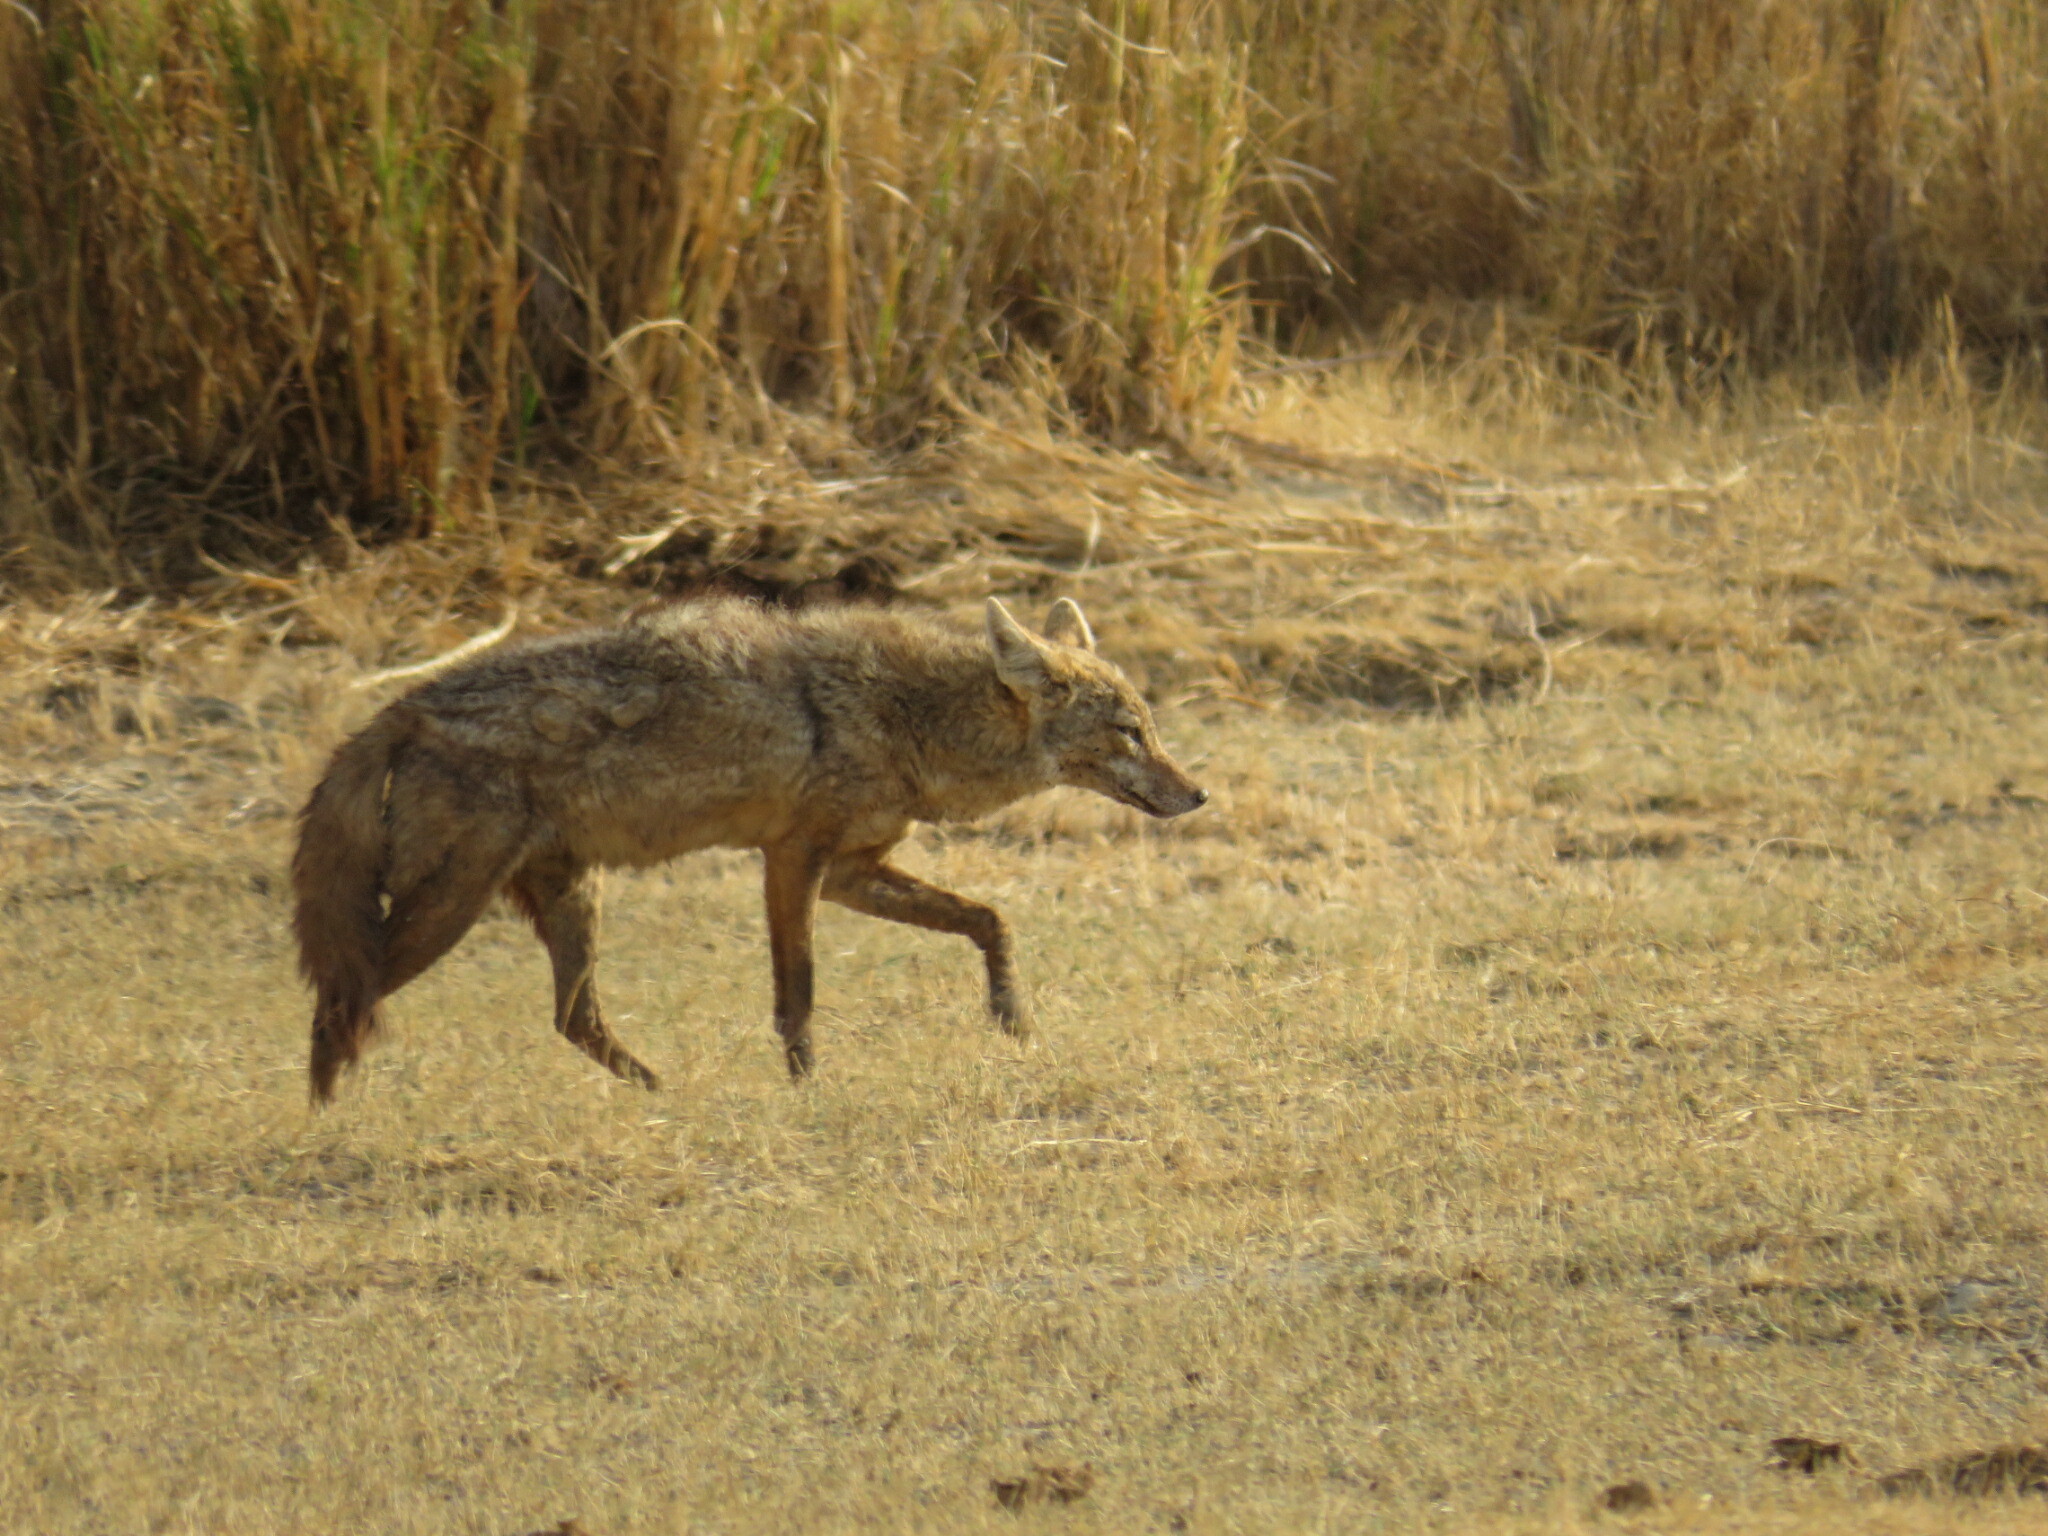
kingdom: Animalia
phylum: Chordata
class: Mammalia
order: Carnivora
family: Canidae
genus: Canis
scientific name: Canis lupaster
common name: African golden wolf
